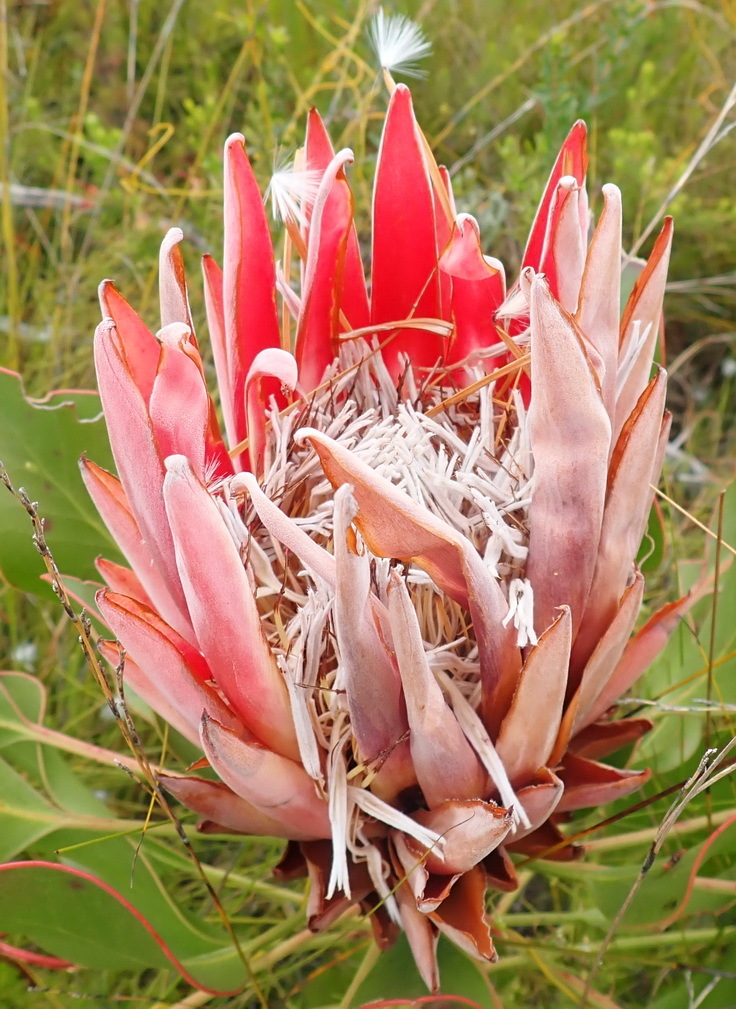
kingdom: Plantae
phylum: Tracheophyta
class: Magnoliopsida
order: Proteales
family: Proteaceae
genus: Protea
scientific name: Protea cynaroides
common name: King protea
